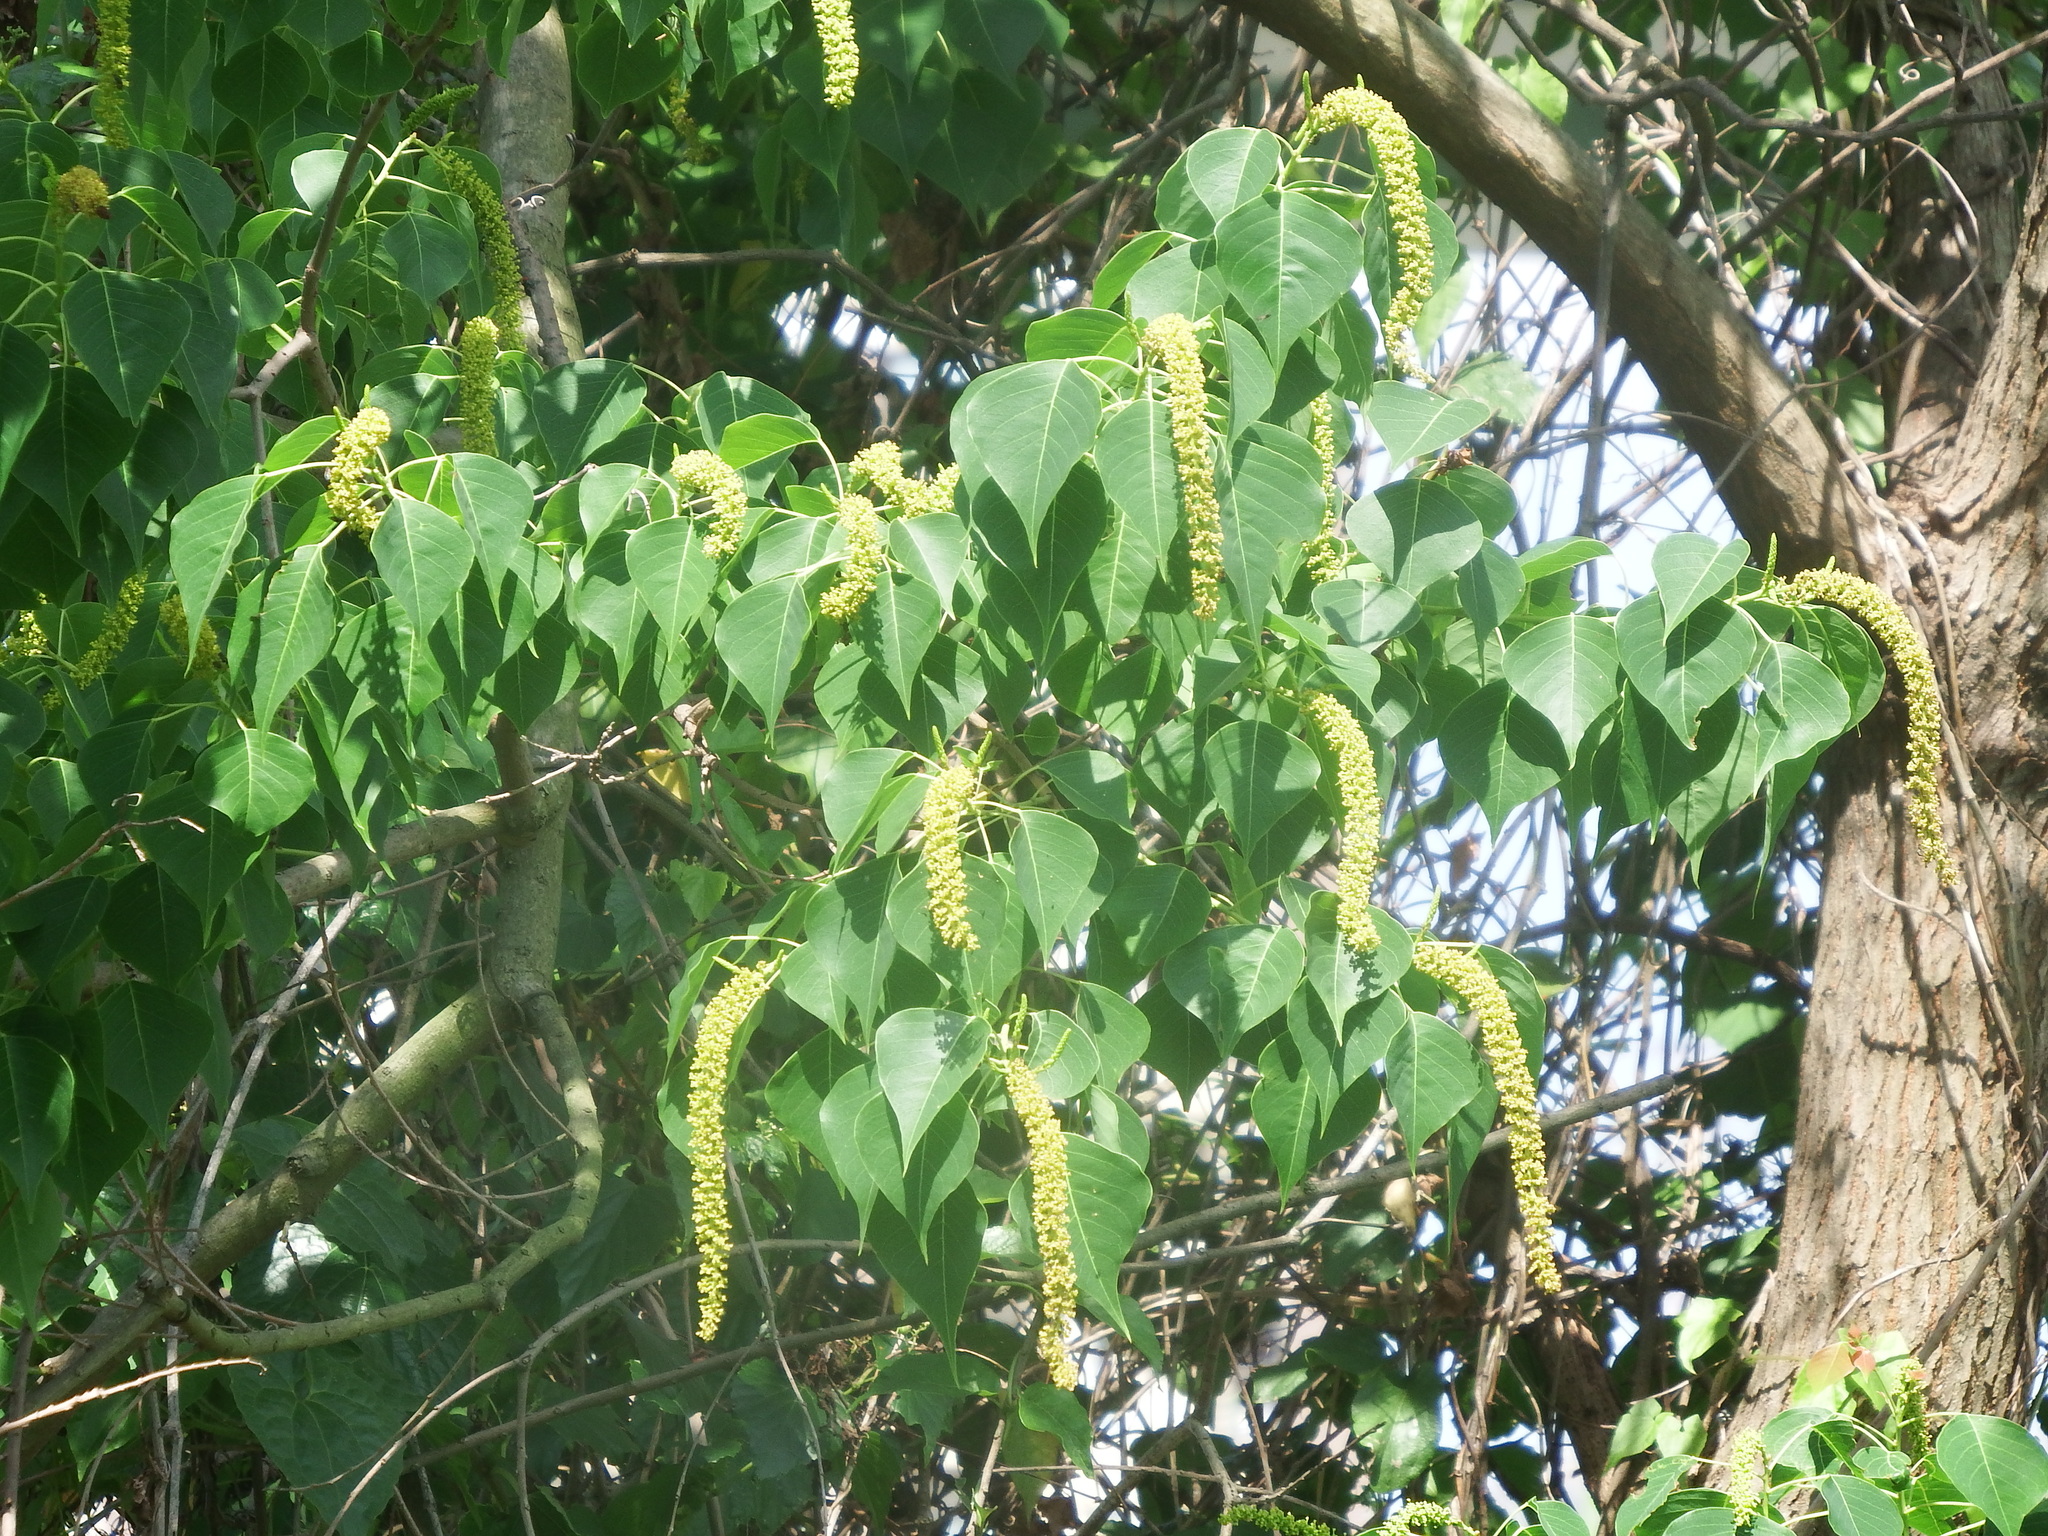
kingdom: Plantae
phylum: Tracheophyta
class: Magnoliopsida
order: Malpighiales
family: Euphorbiaceae
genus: Triadica
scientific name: Triadica sebifera
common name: Chinese tallow
